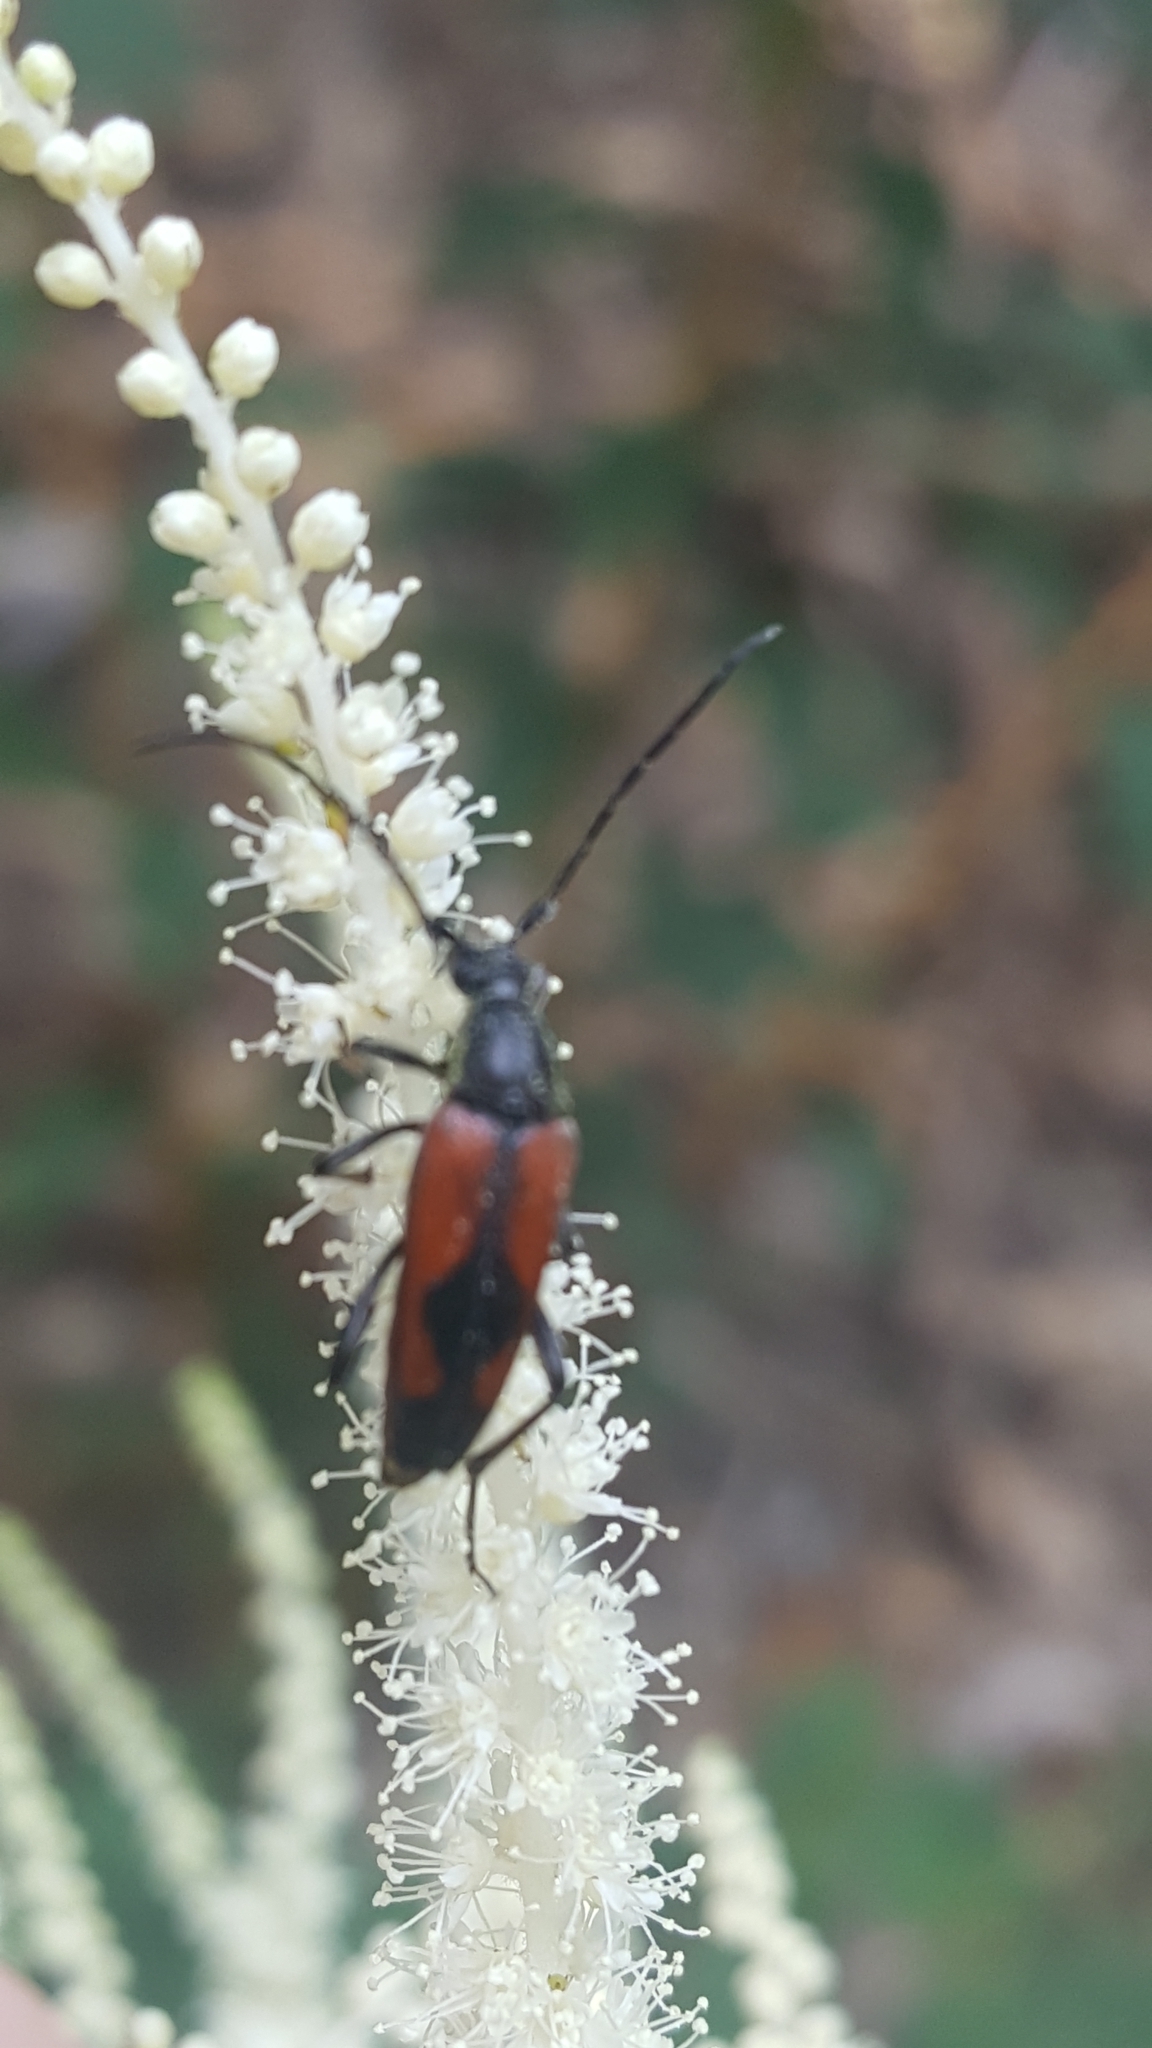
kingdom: Animalia
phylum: Arthropoda
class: Insecta
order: Coleoptera
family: Cerambycidae
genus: Stenurella
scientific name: Stenurella bifasciata
